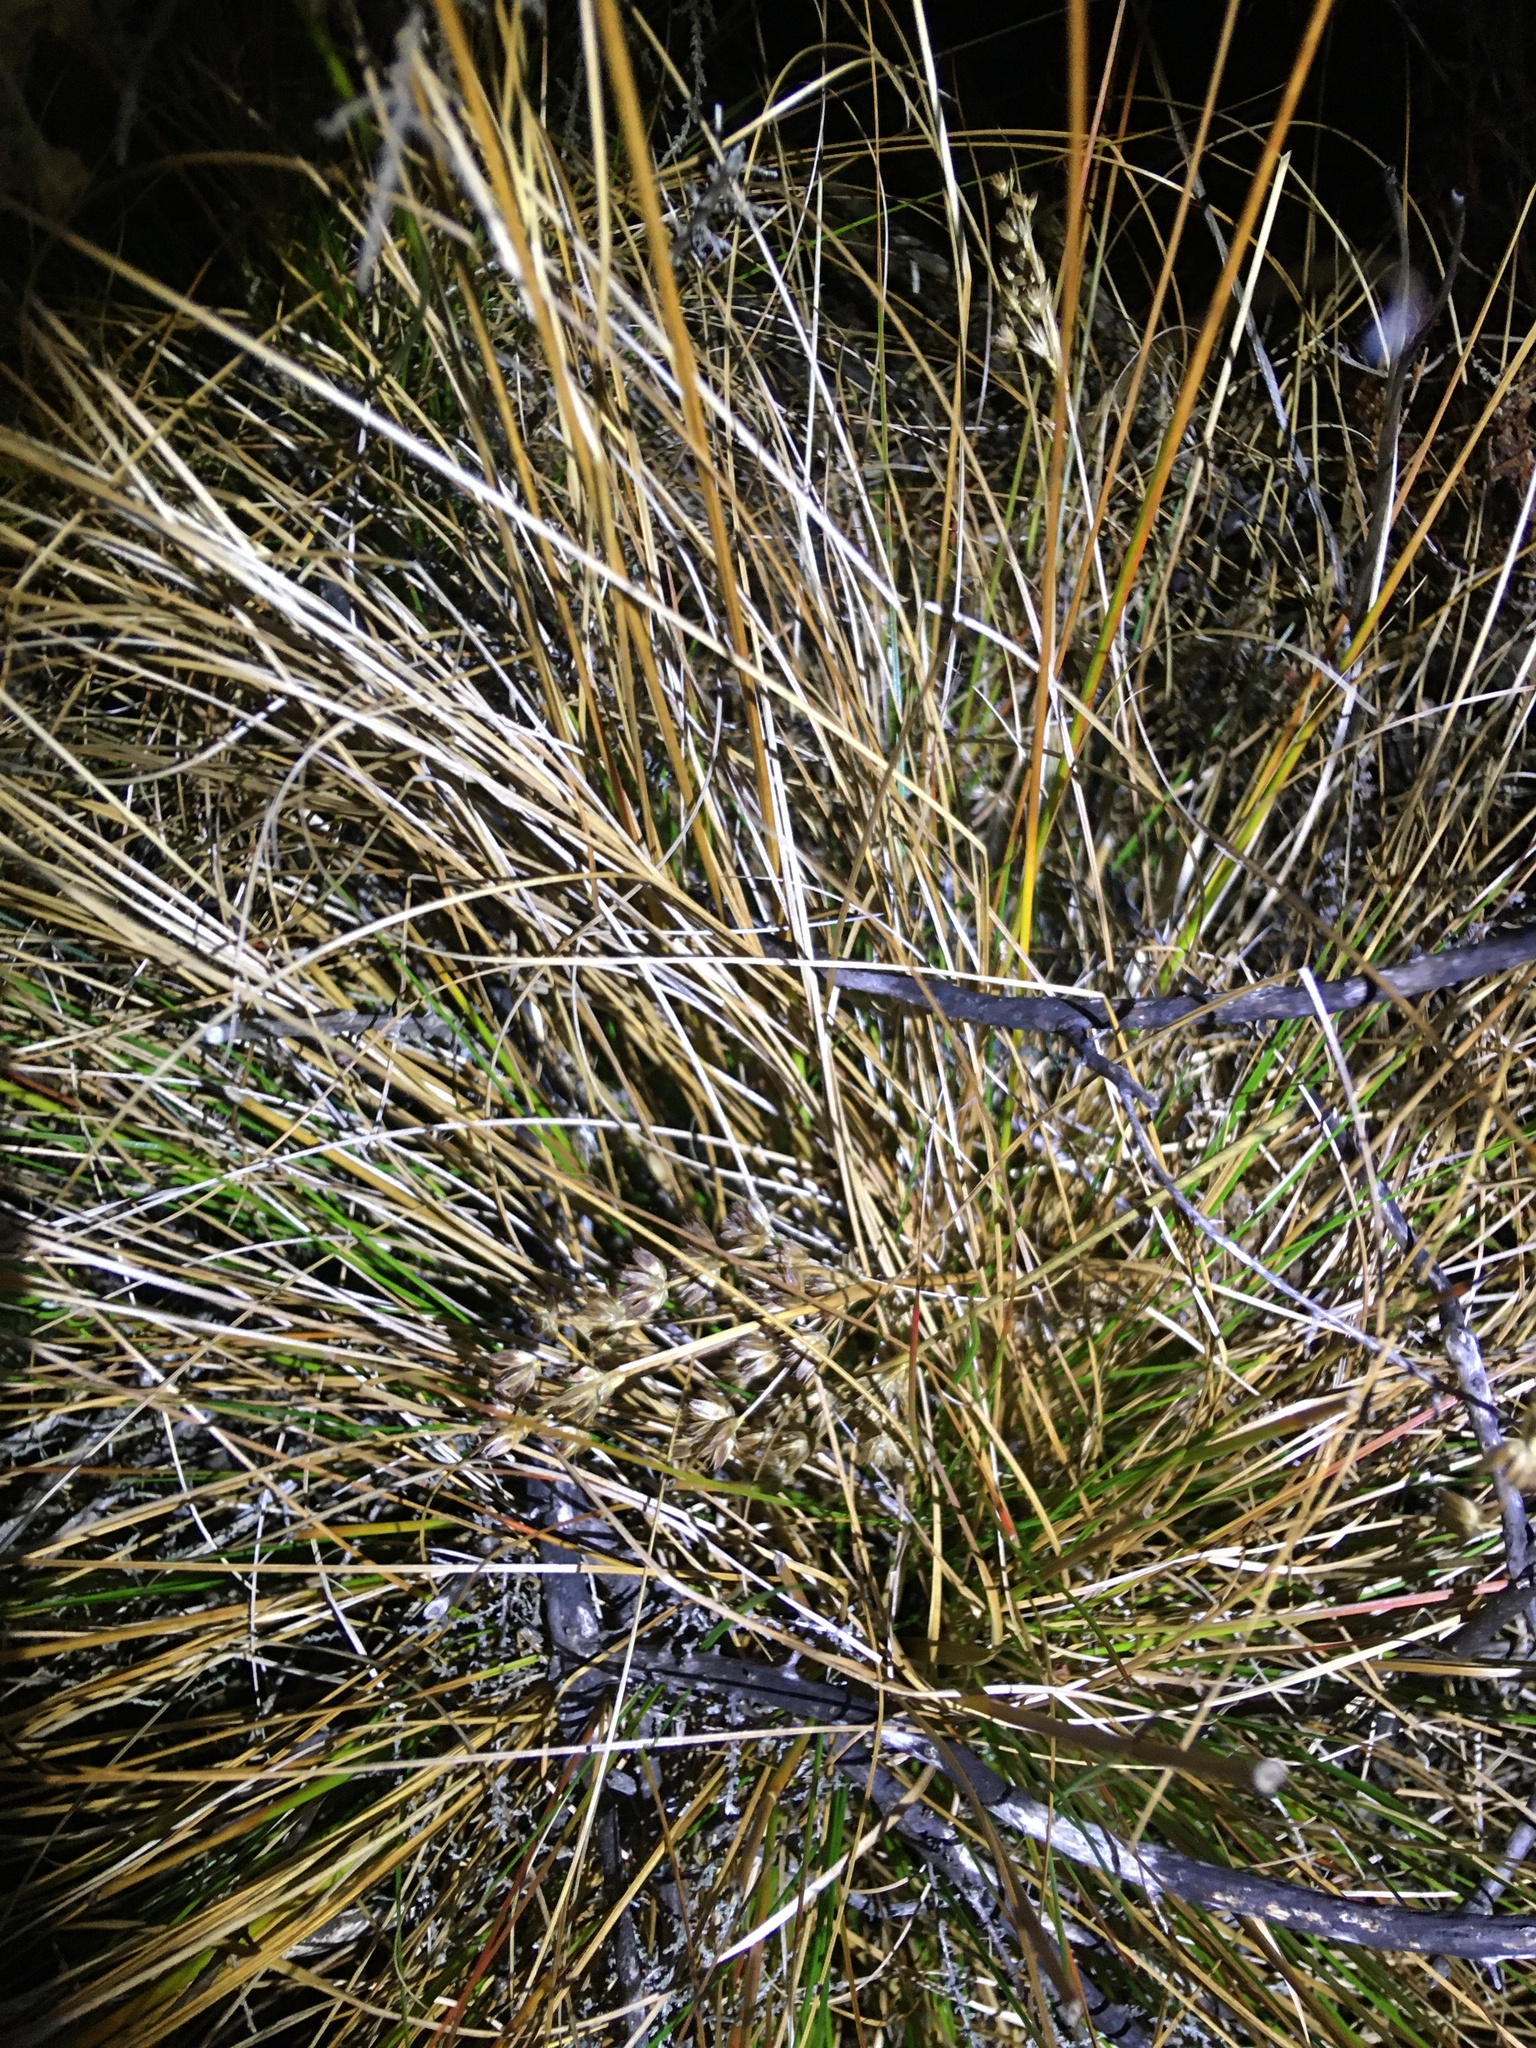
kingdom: Plantae
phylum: Tracheophyta
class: Liliopsida
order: Poales
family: Juncaceae
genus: Juncus
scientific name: Juncus capensis
